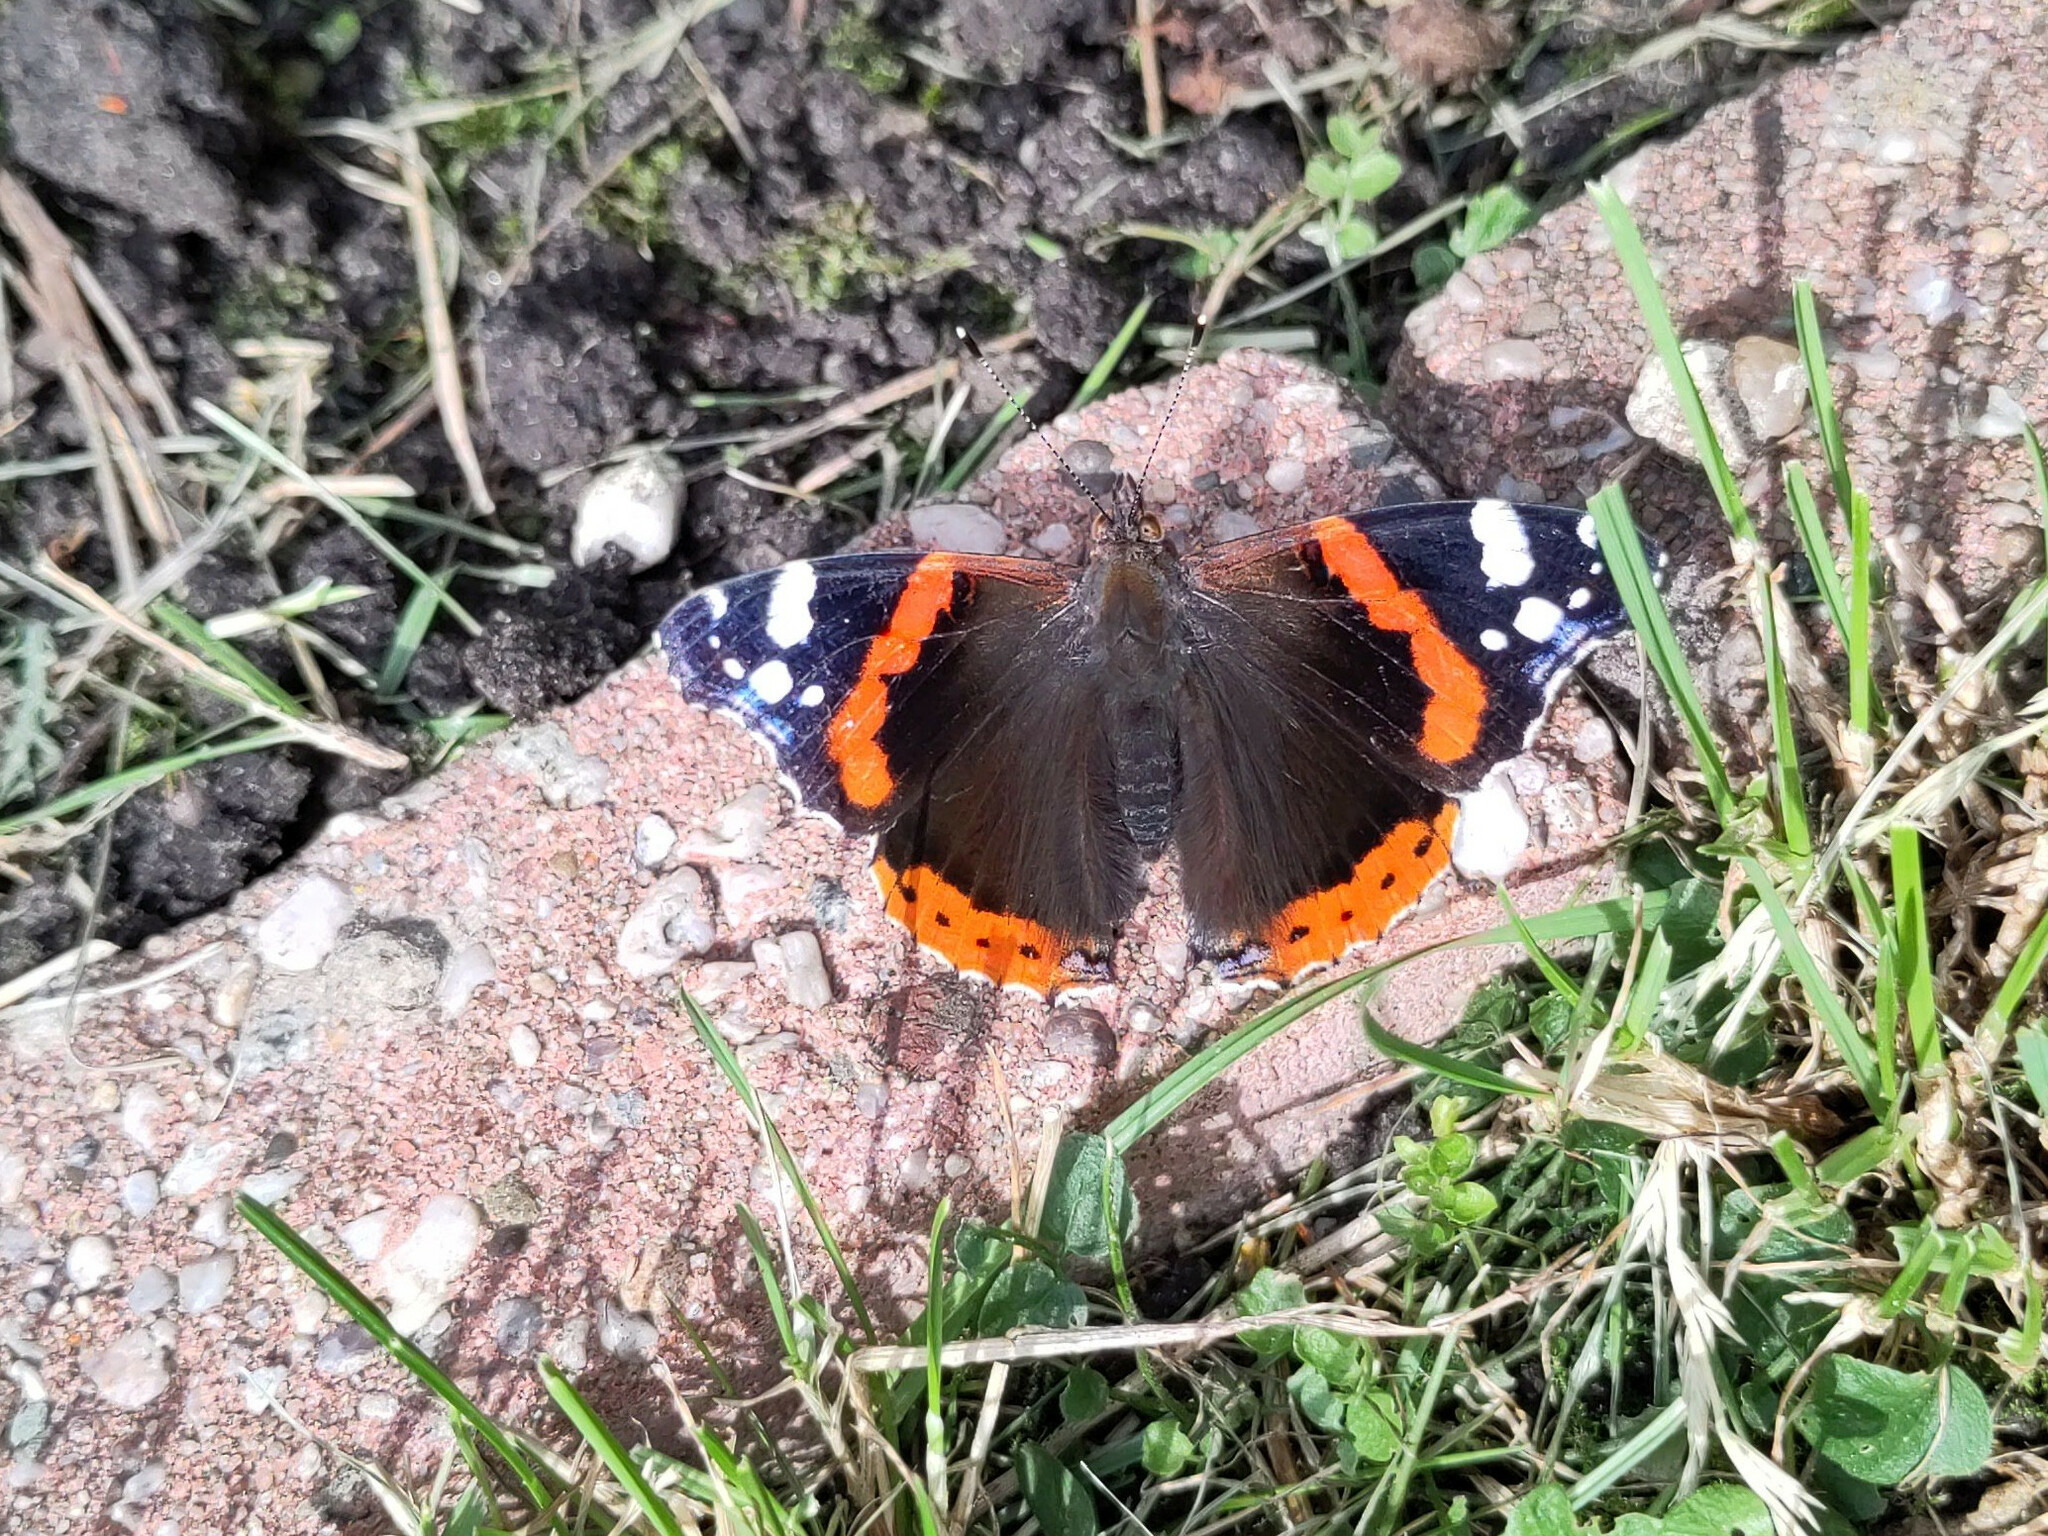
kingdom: Animalia
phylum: Arthropoda
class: Insecta
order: Lepidoptera
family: Nymphalidae
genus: Vanessa
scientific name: Vanessa atalanta
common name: Red admiral
